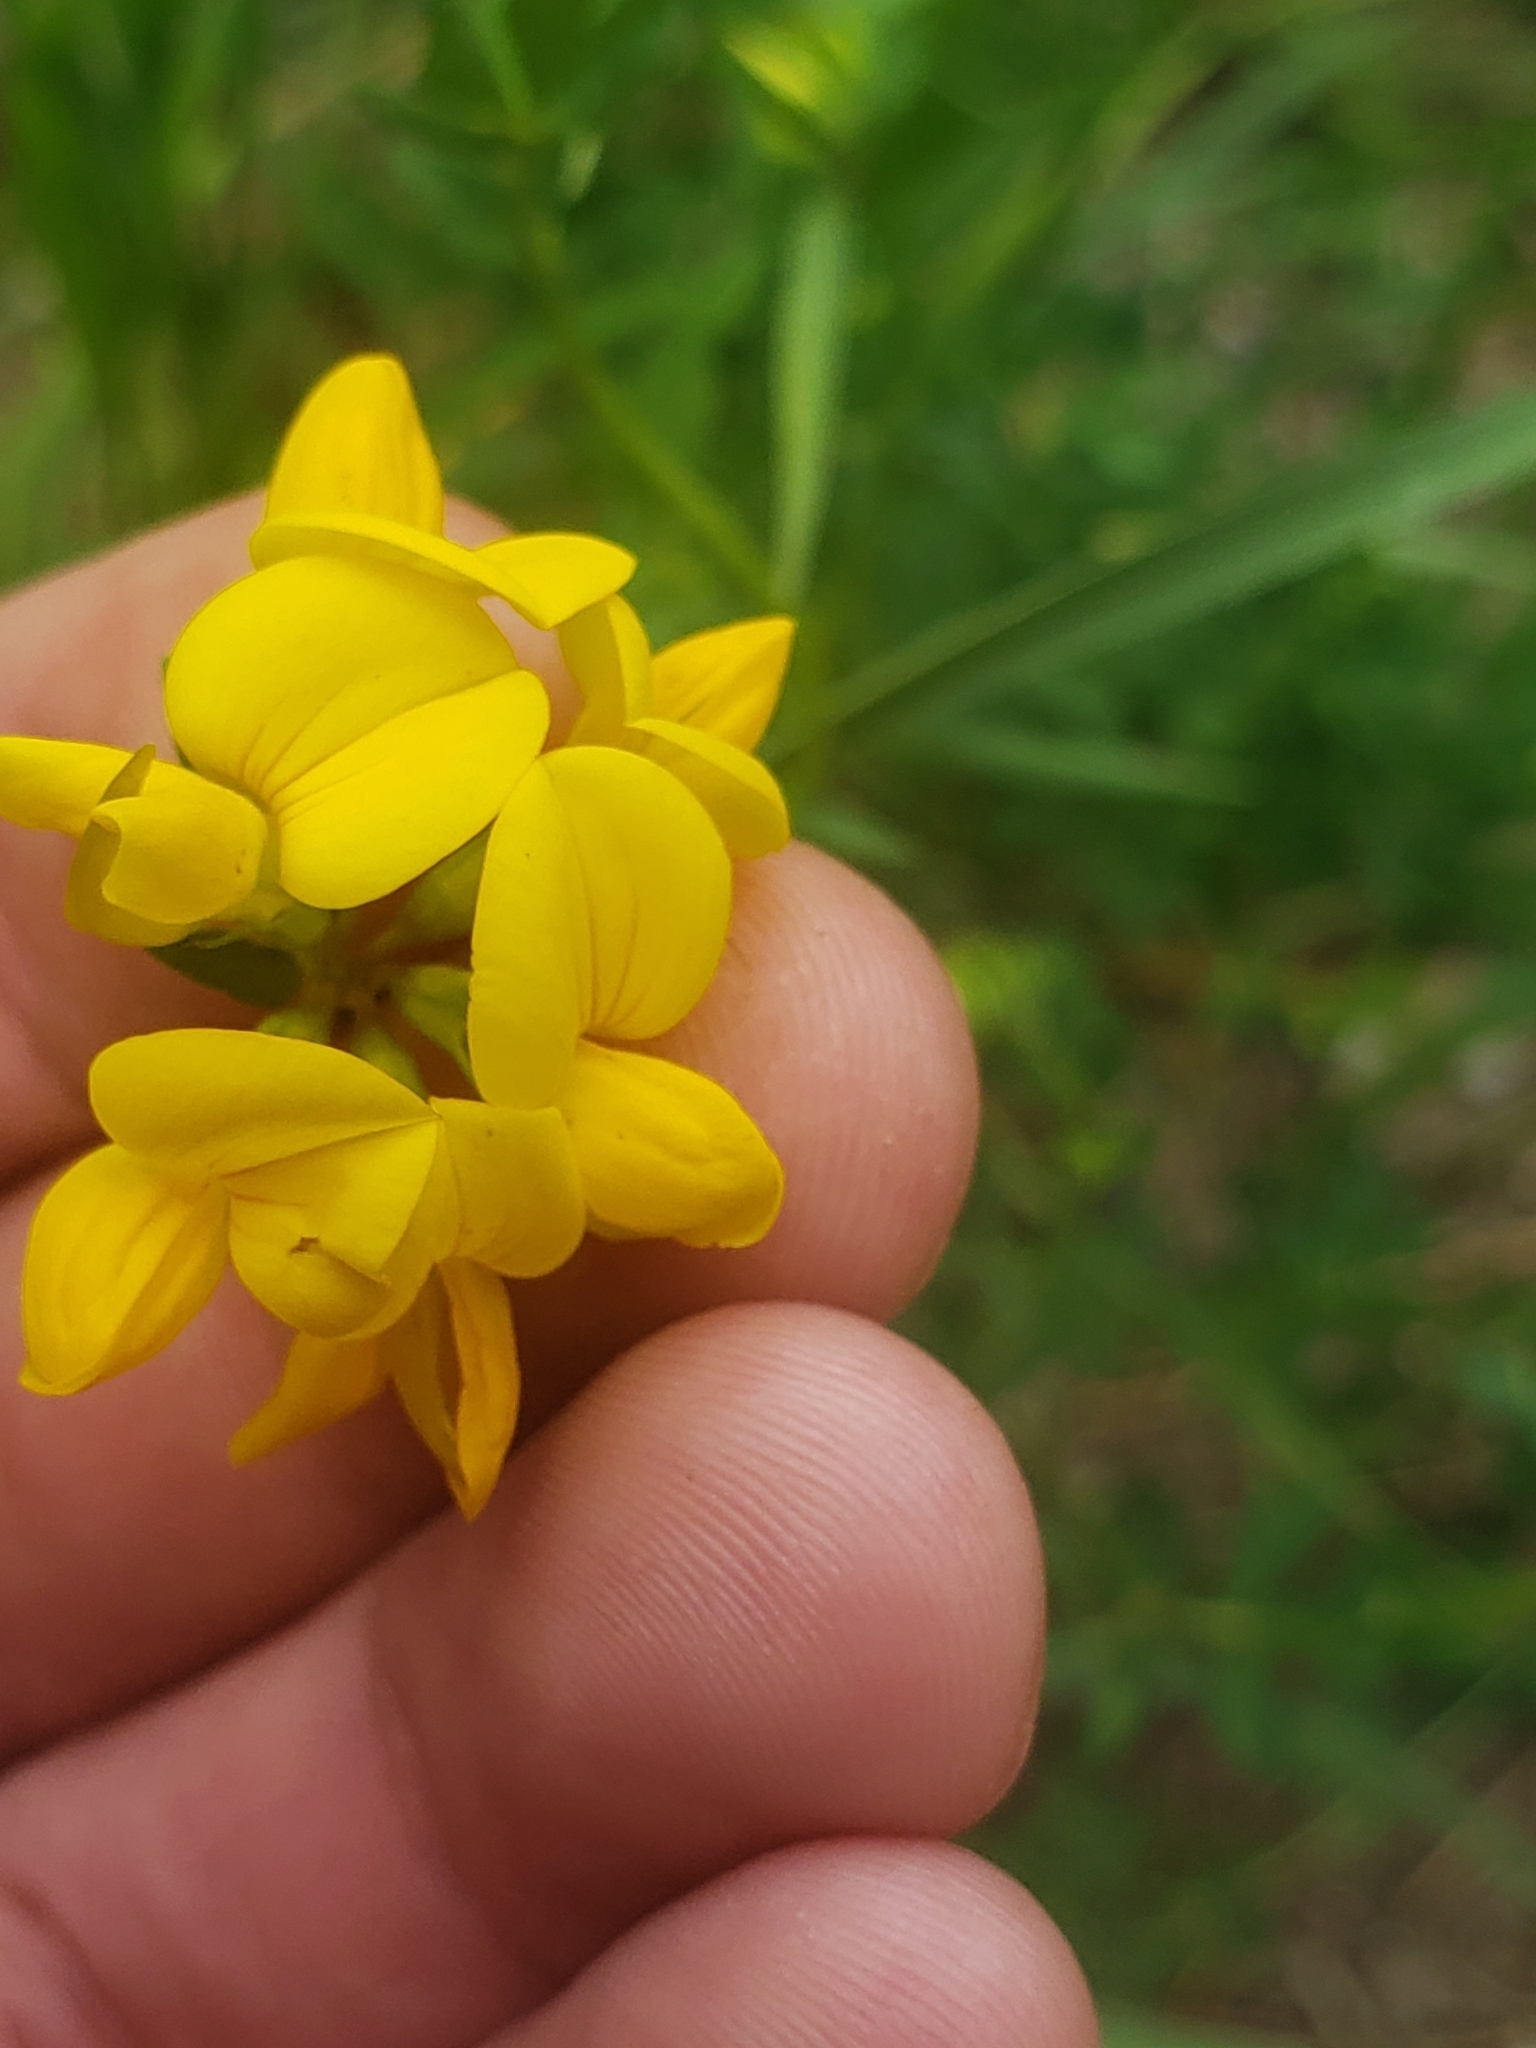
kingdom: Plantae
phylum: Tracheophyta
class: Magnoliopsida
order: Fabales
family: Fabaceae
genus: Lotus
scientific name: Lotus corniculatus
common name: Common bird's-foot-trefoil
